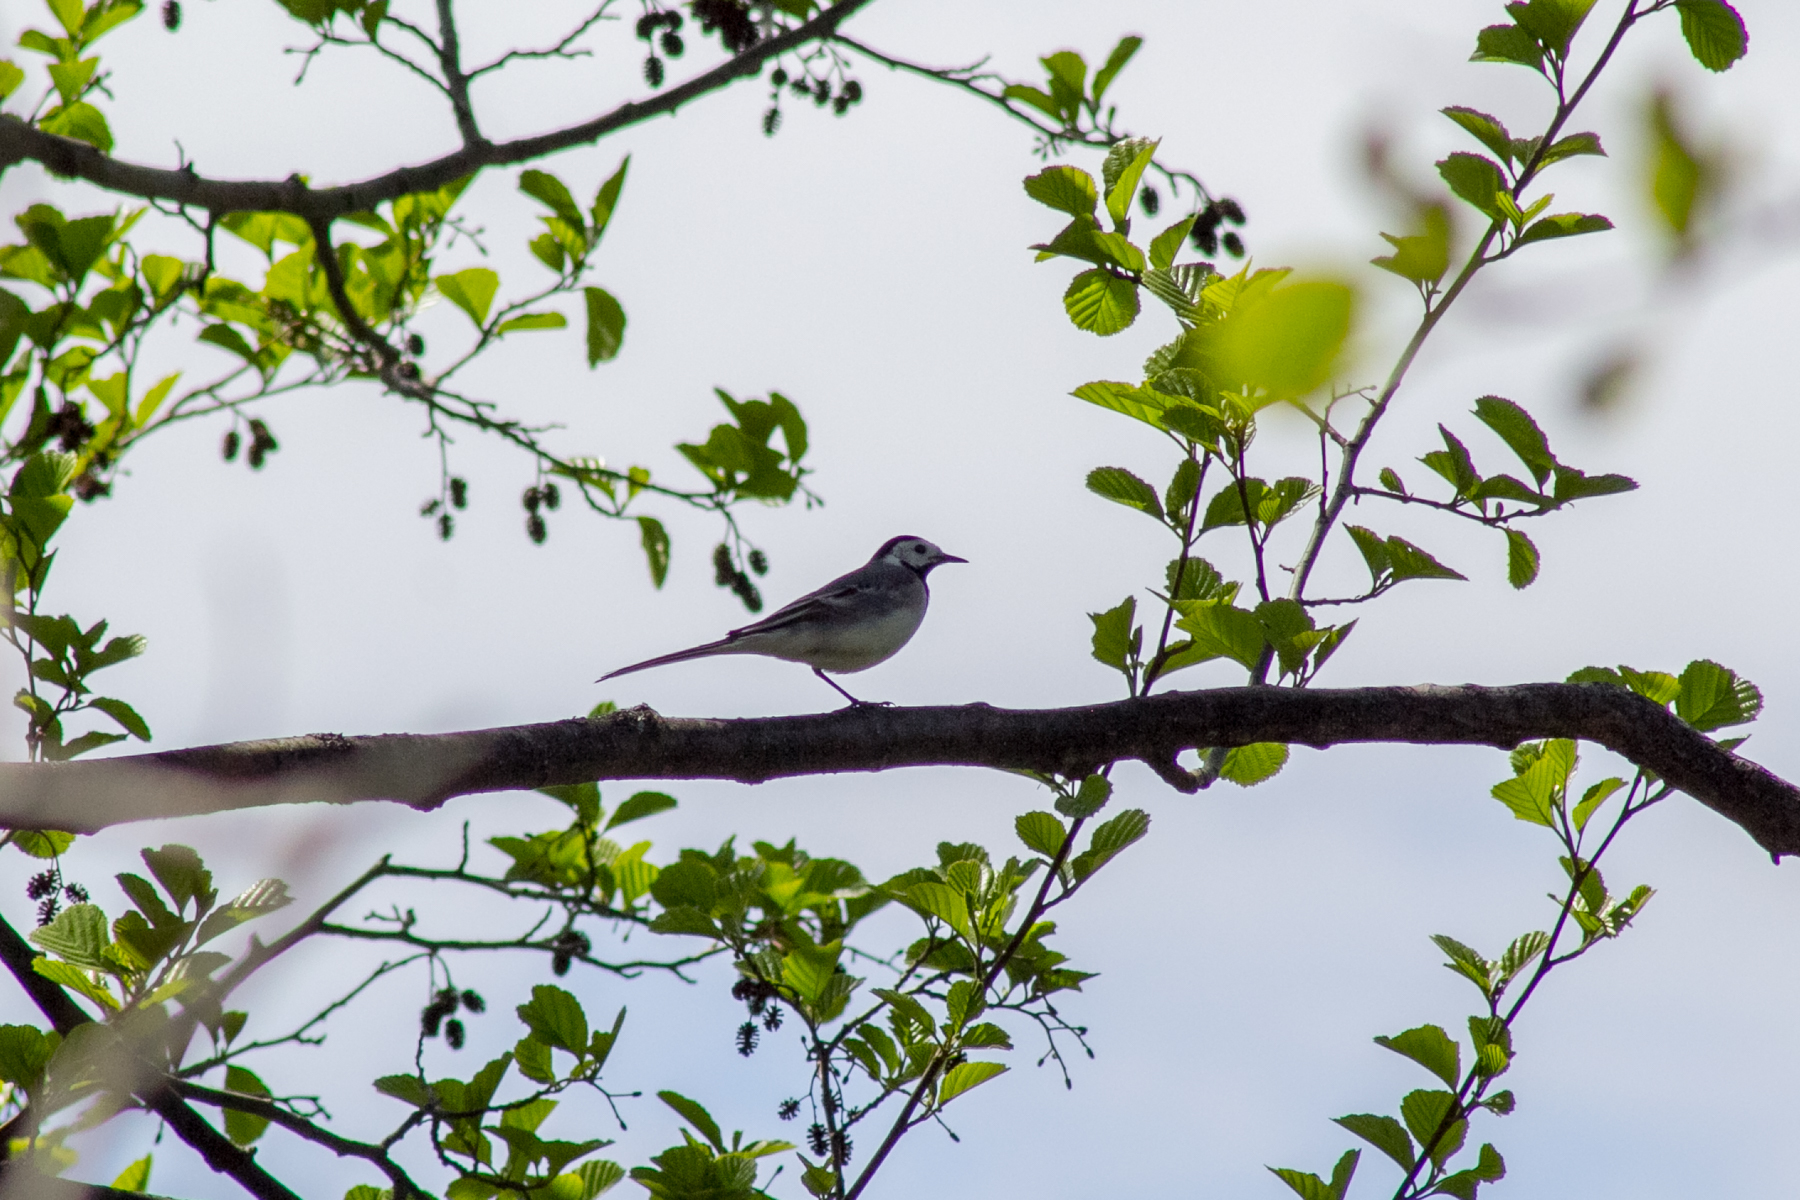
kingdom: Animalia
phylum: Chordata
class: Aves
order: Passeriformes
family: Motacillidae
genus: Motacilla
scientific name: Motacilla alba
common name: White wagtail
